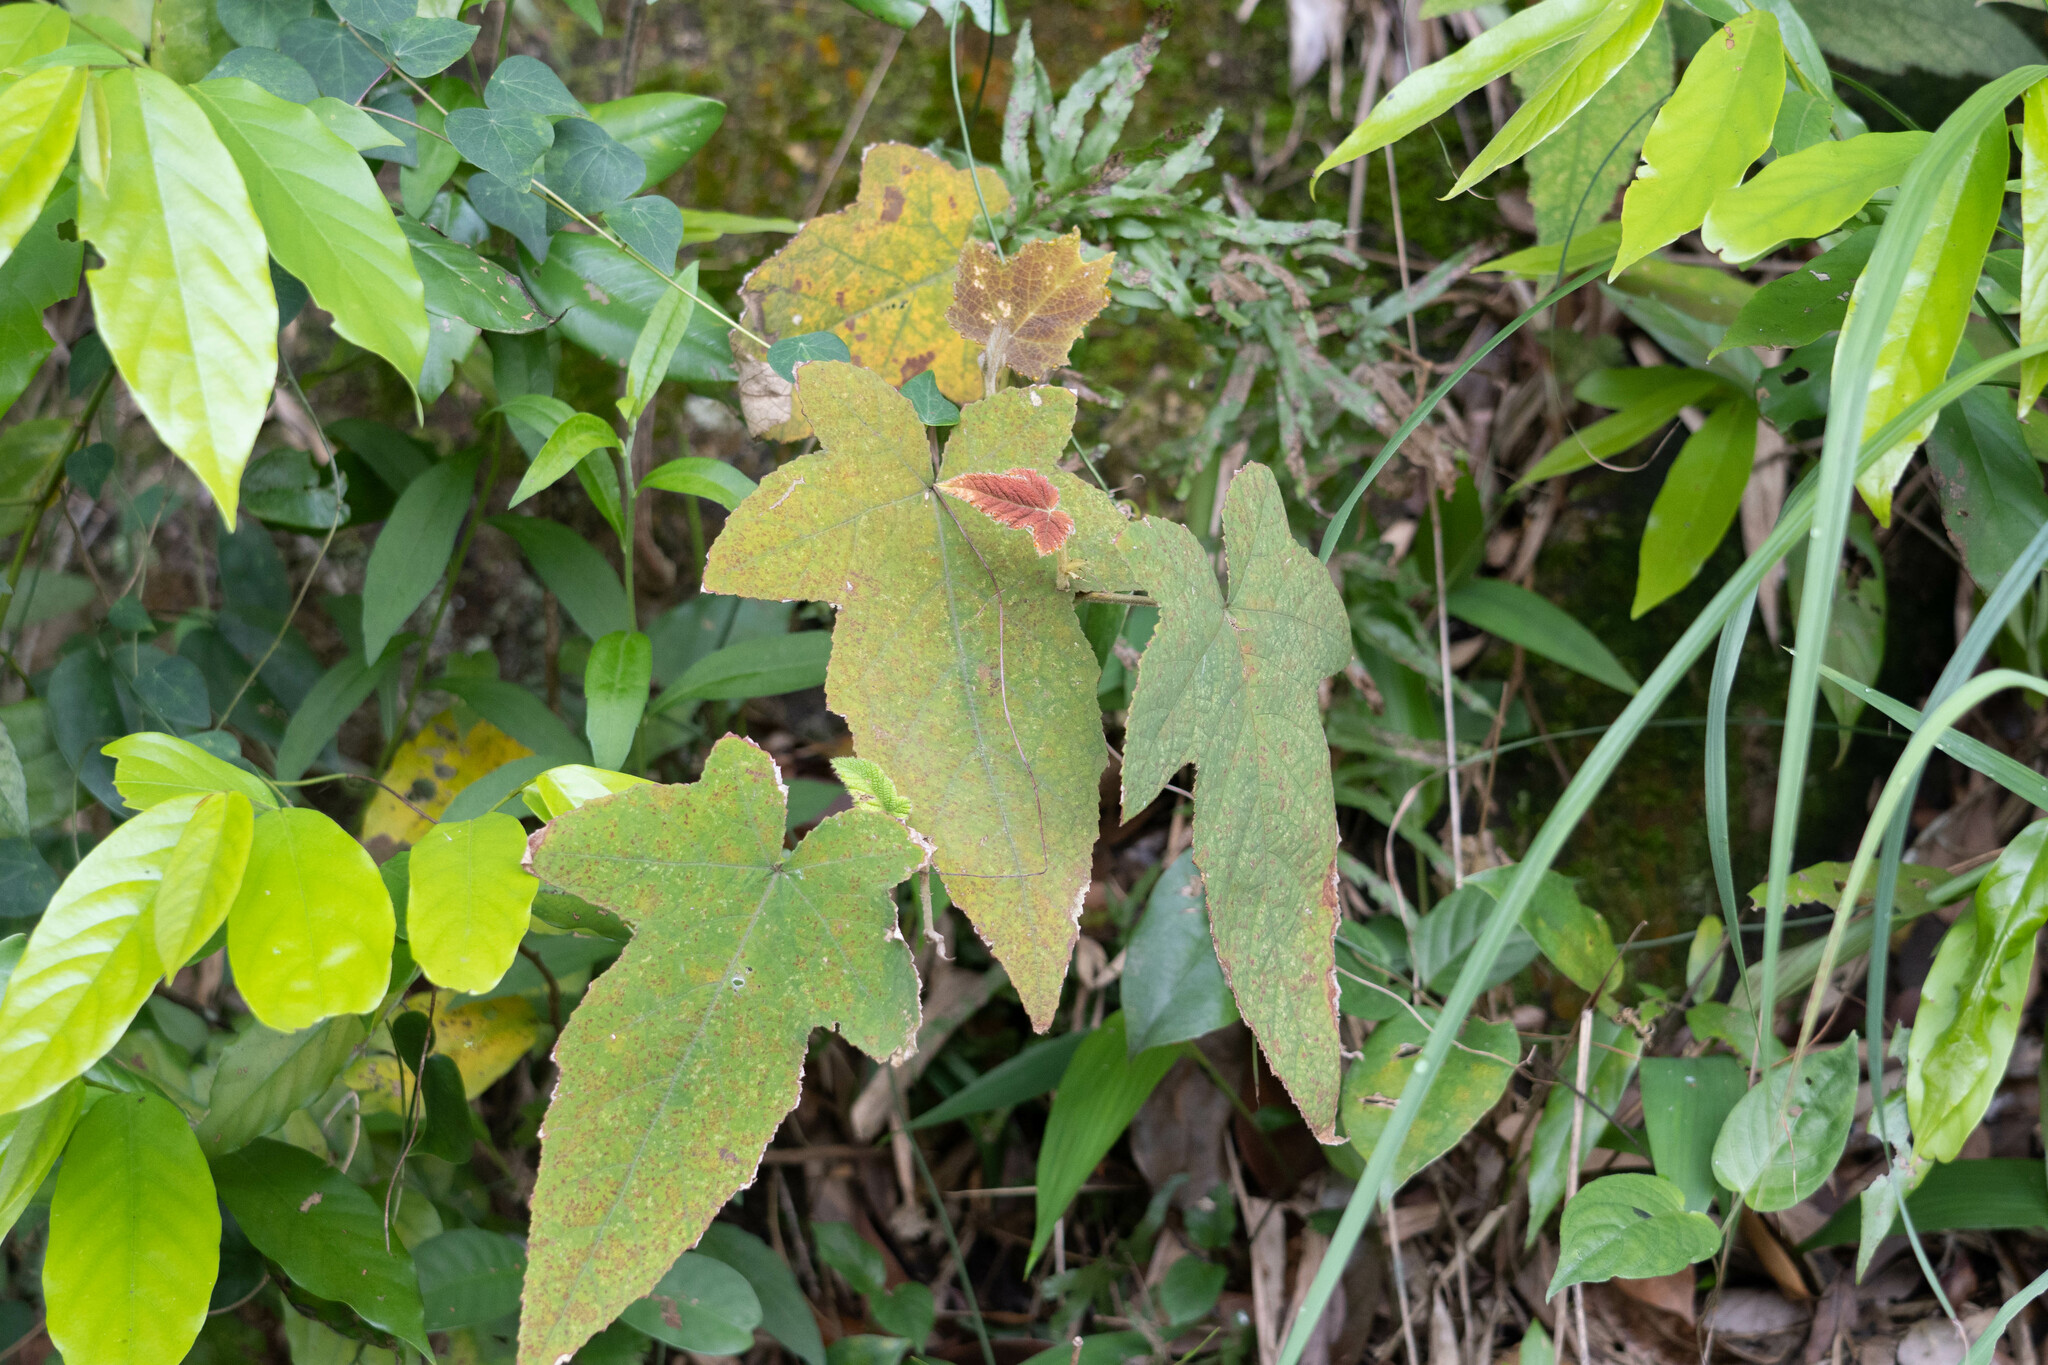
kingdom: Plantae
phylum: Tracheophyta
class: Magnoliopsida
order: Rosales
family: Rosaceae
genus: Rubus
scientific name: Rubus reflexus
